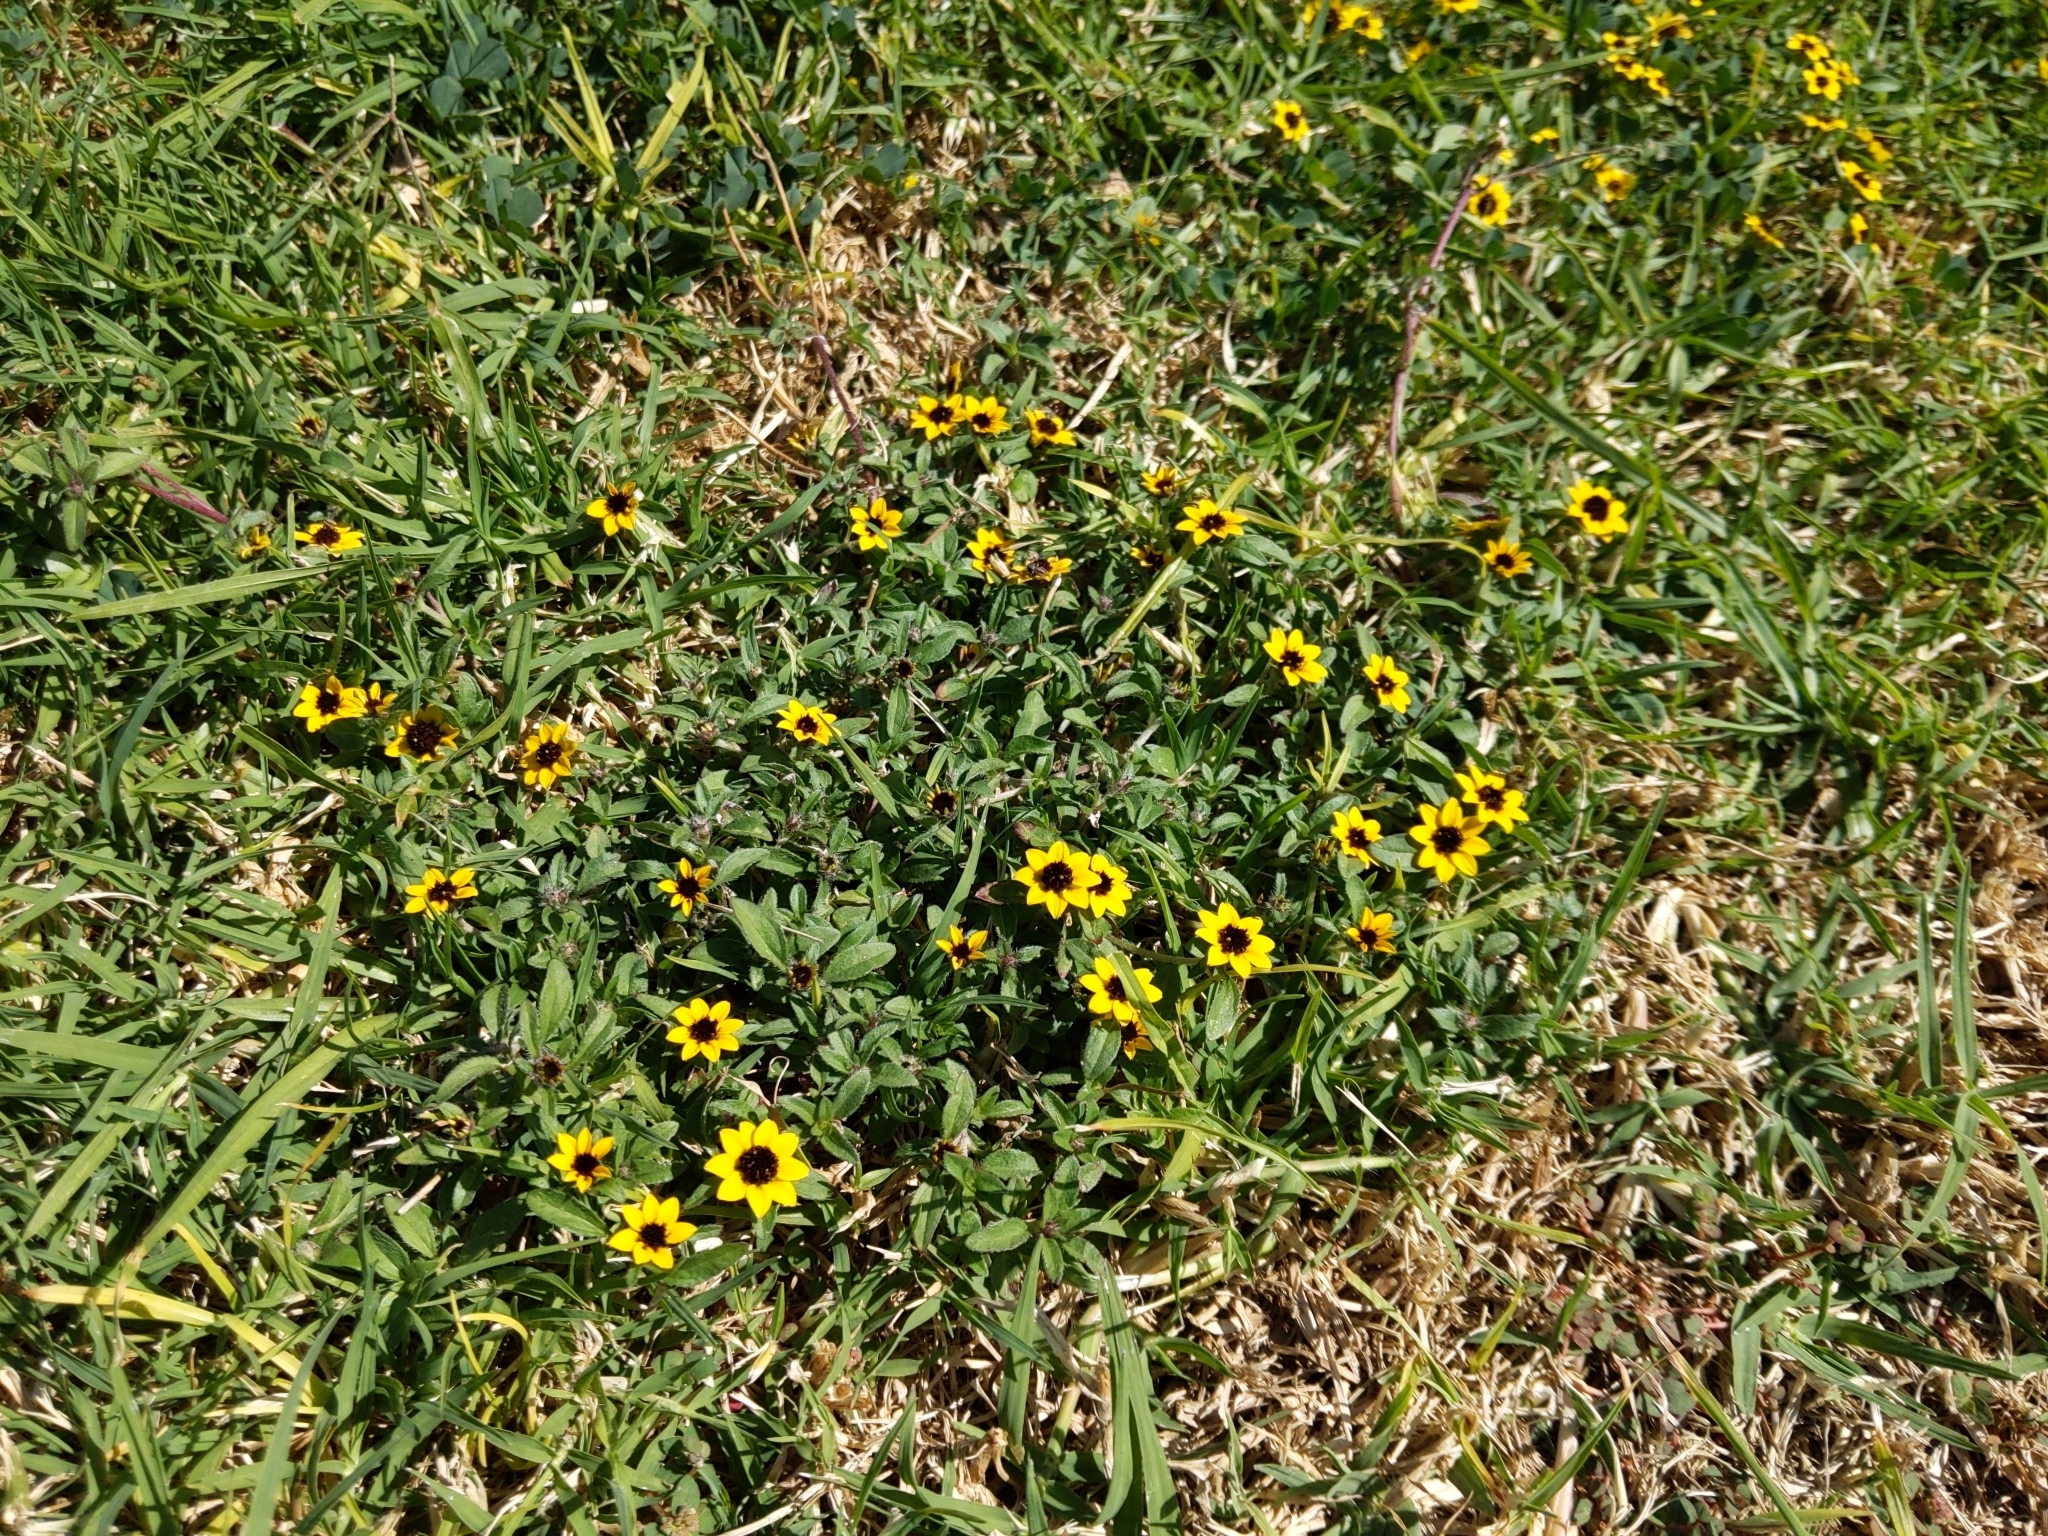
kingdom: Plantae
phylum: Tracheophyta
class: Magnoliopsida
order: Asterales
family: Asteraceae
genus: Sanvitalia
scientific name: Sanvitalia procumbens
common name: Mexican creeping zinnia
